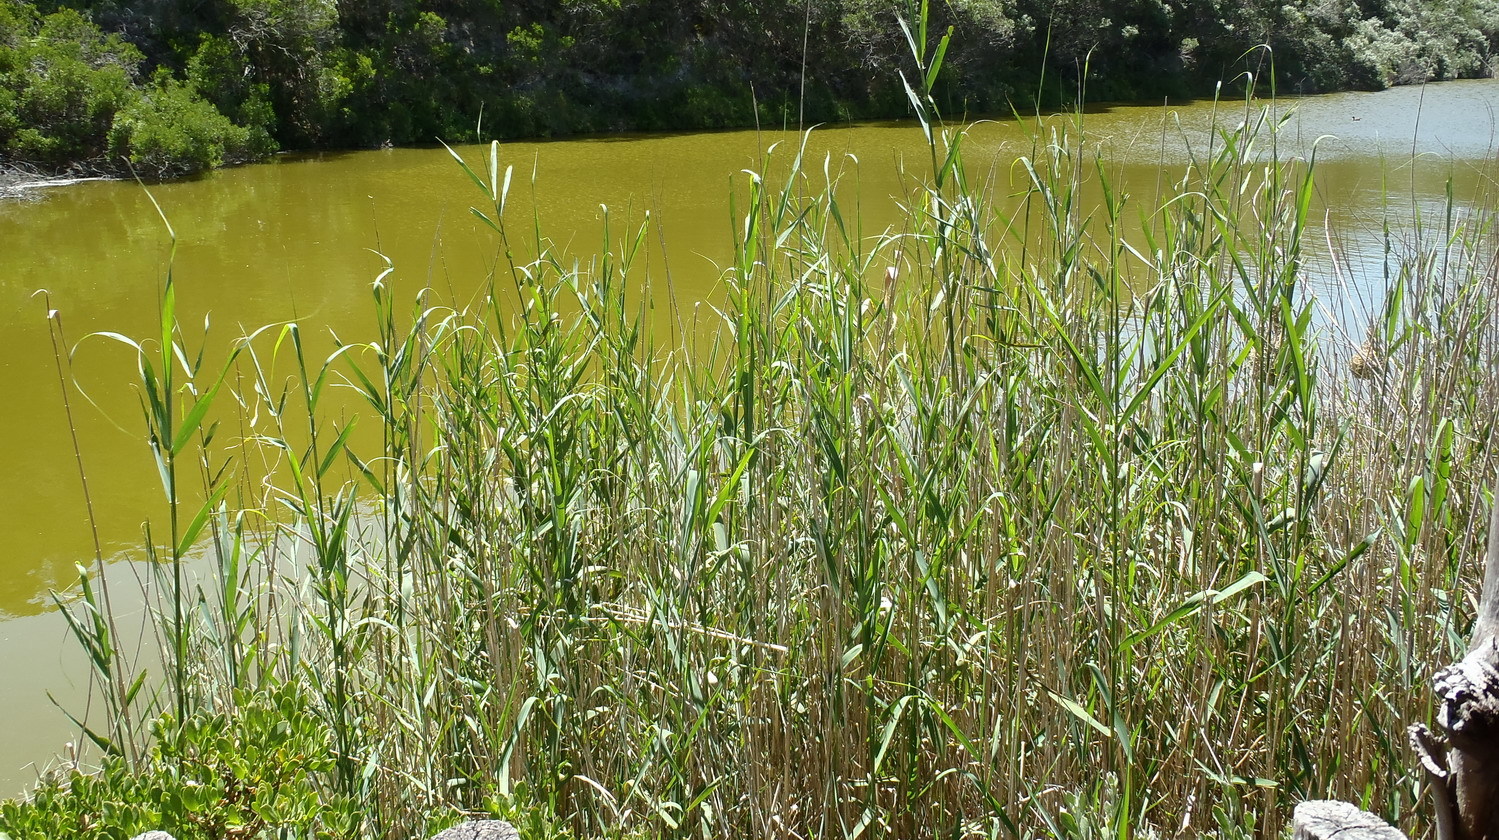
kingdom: Plantae
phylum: Tracheophyta
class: Liliopsida
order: Poales
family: Poaceae
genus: Phragmites
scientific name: Phragmites australis
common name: Common reed
